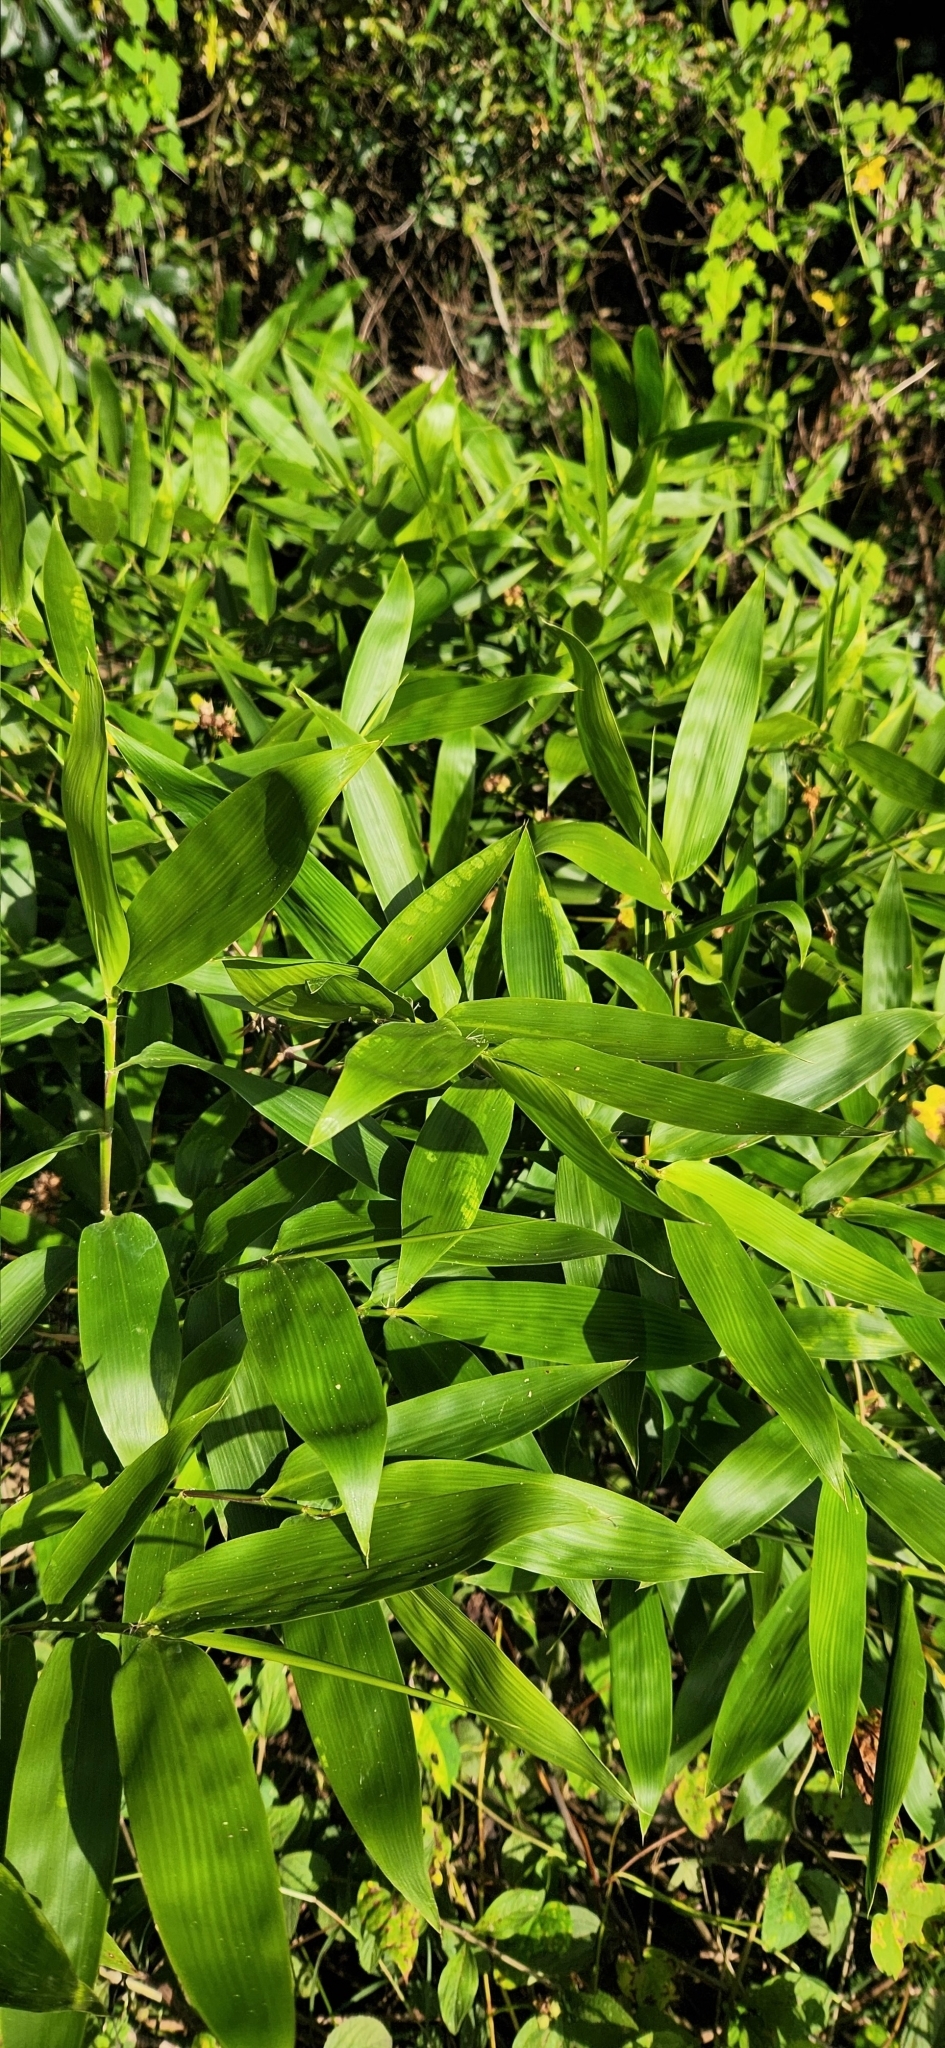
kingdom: Plantae
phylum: Tracheophyta
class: Liliopsida
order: Poales
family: Poaceae
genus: Guadua
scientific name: Guadua chacoensis
